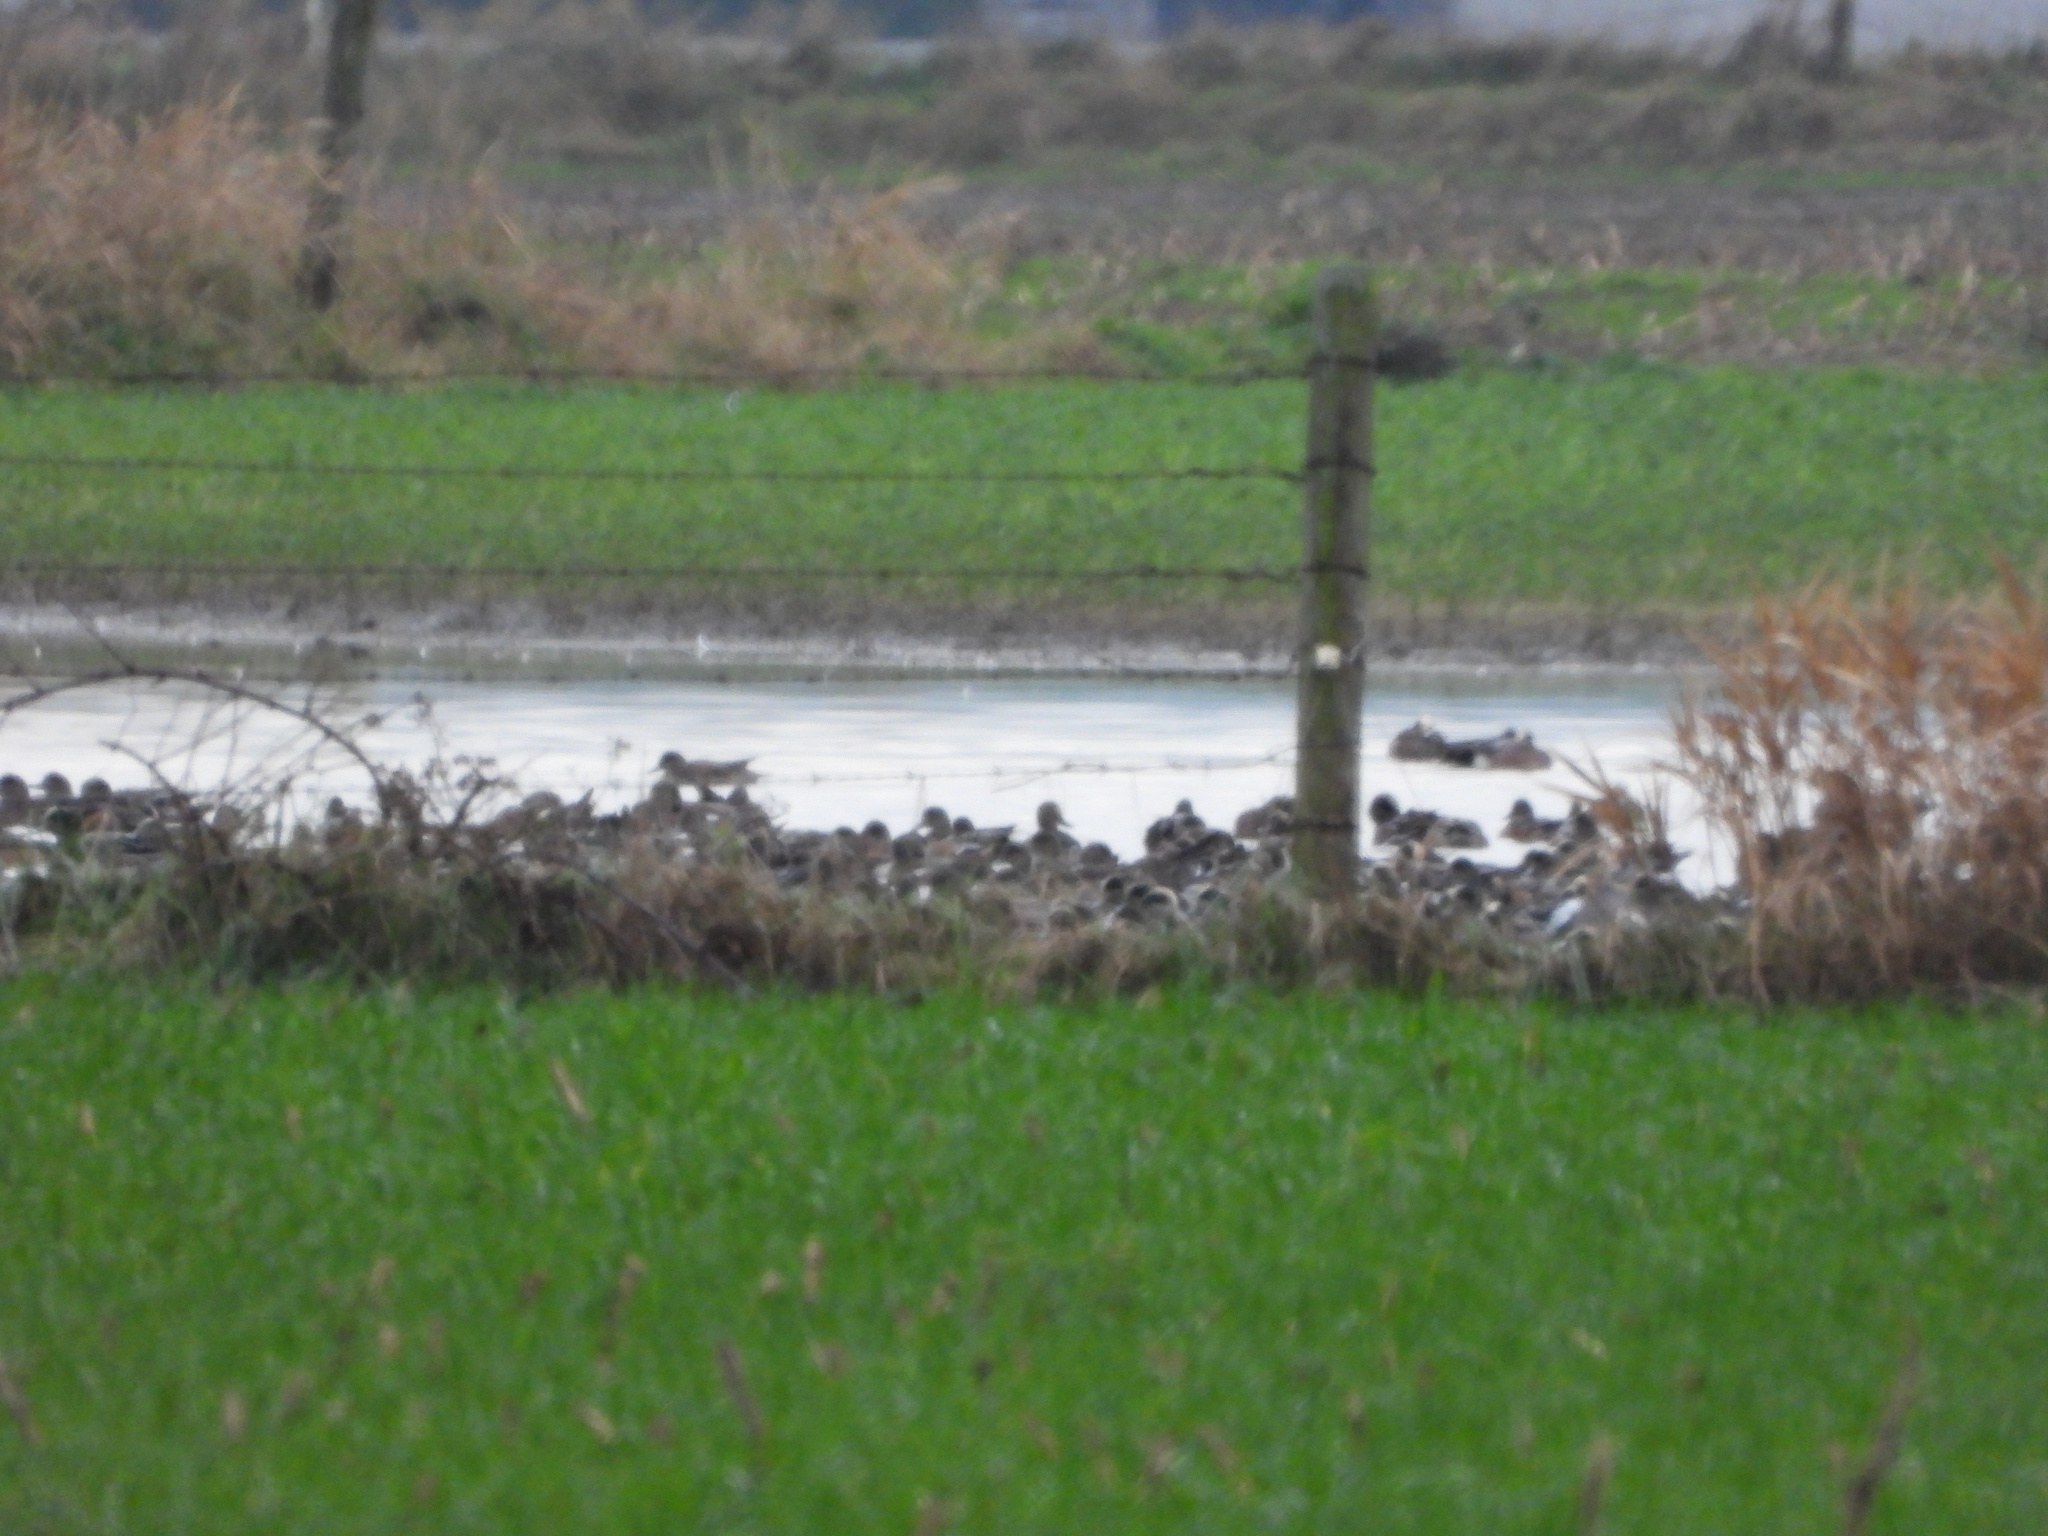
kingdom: Animalia
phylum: Chordata
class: Aves
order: Anseriformes
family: Anatidae
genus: Mareca
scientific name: Mareca americana
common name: American wigeon
